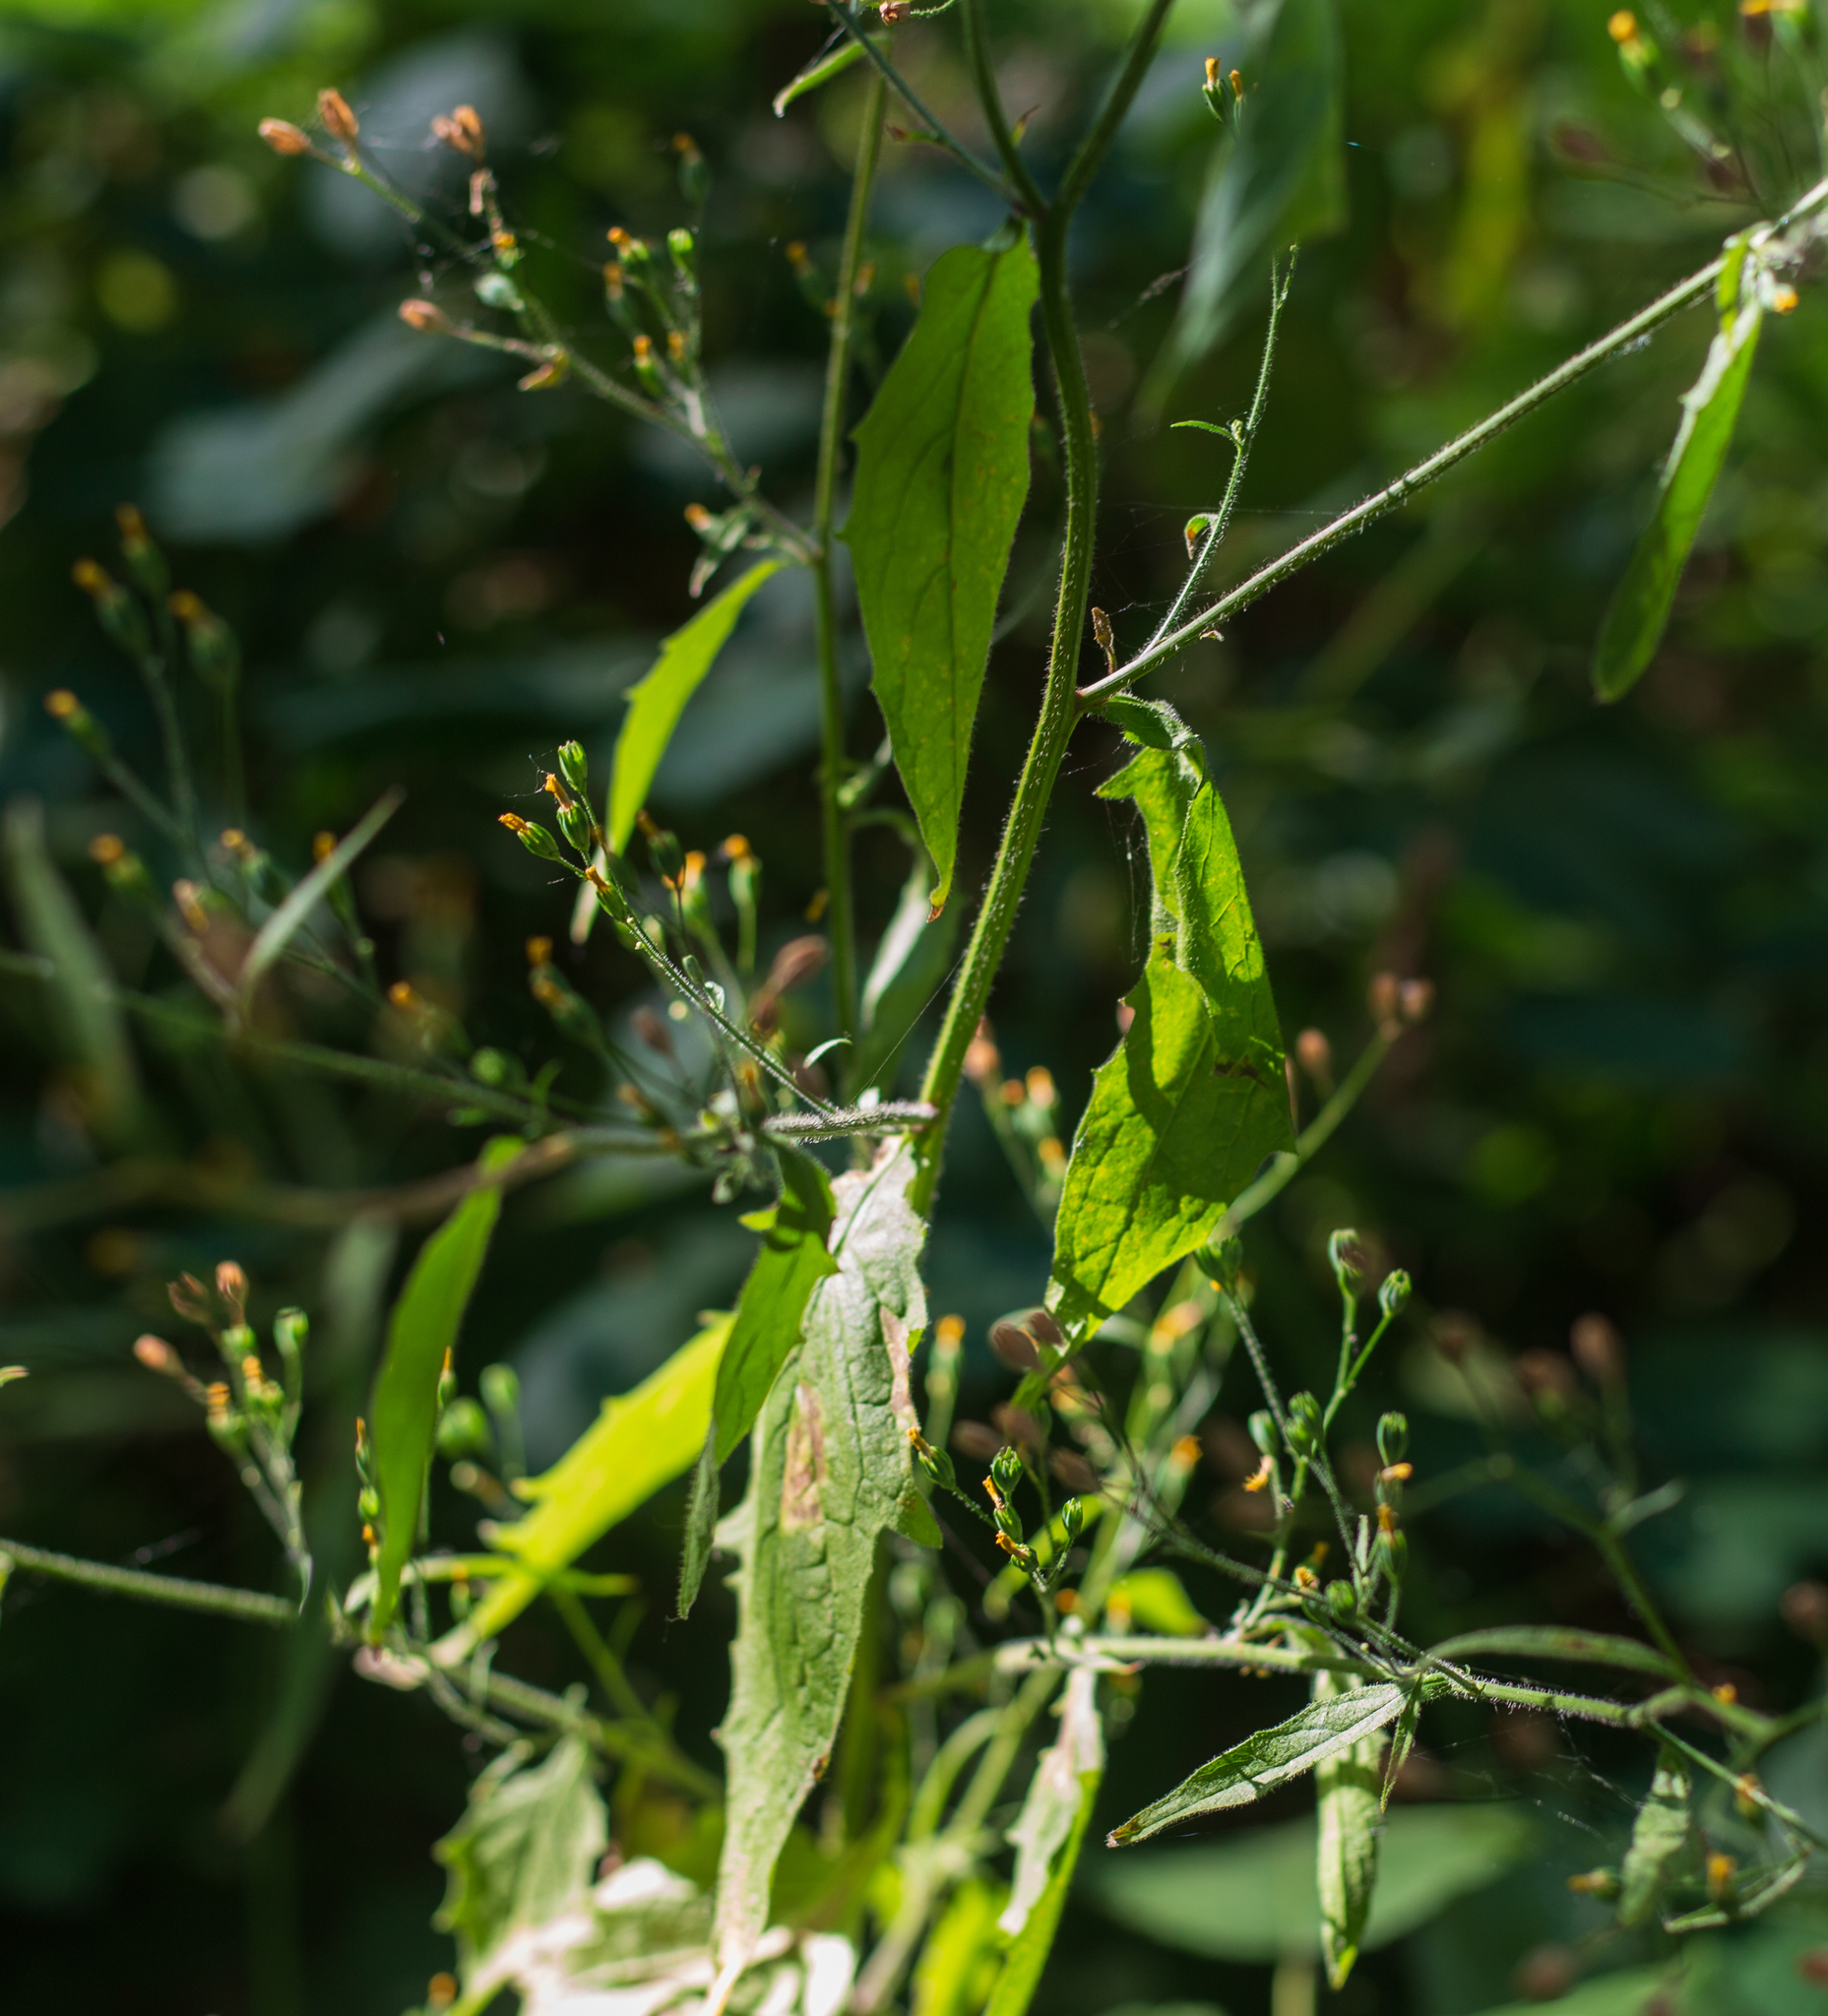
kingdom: Plantae
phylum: Tracheophyta
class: Magnoliopsida
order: Asterales
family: Asteraceae
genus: Lapsana
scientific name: Lapsana communis
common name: Nipplewort
